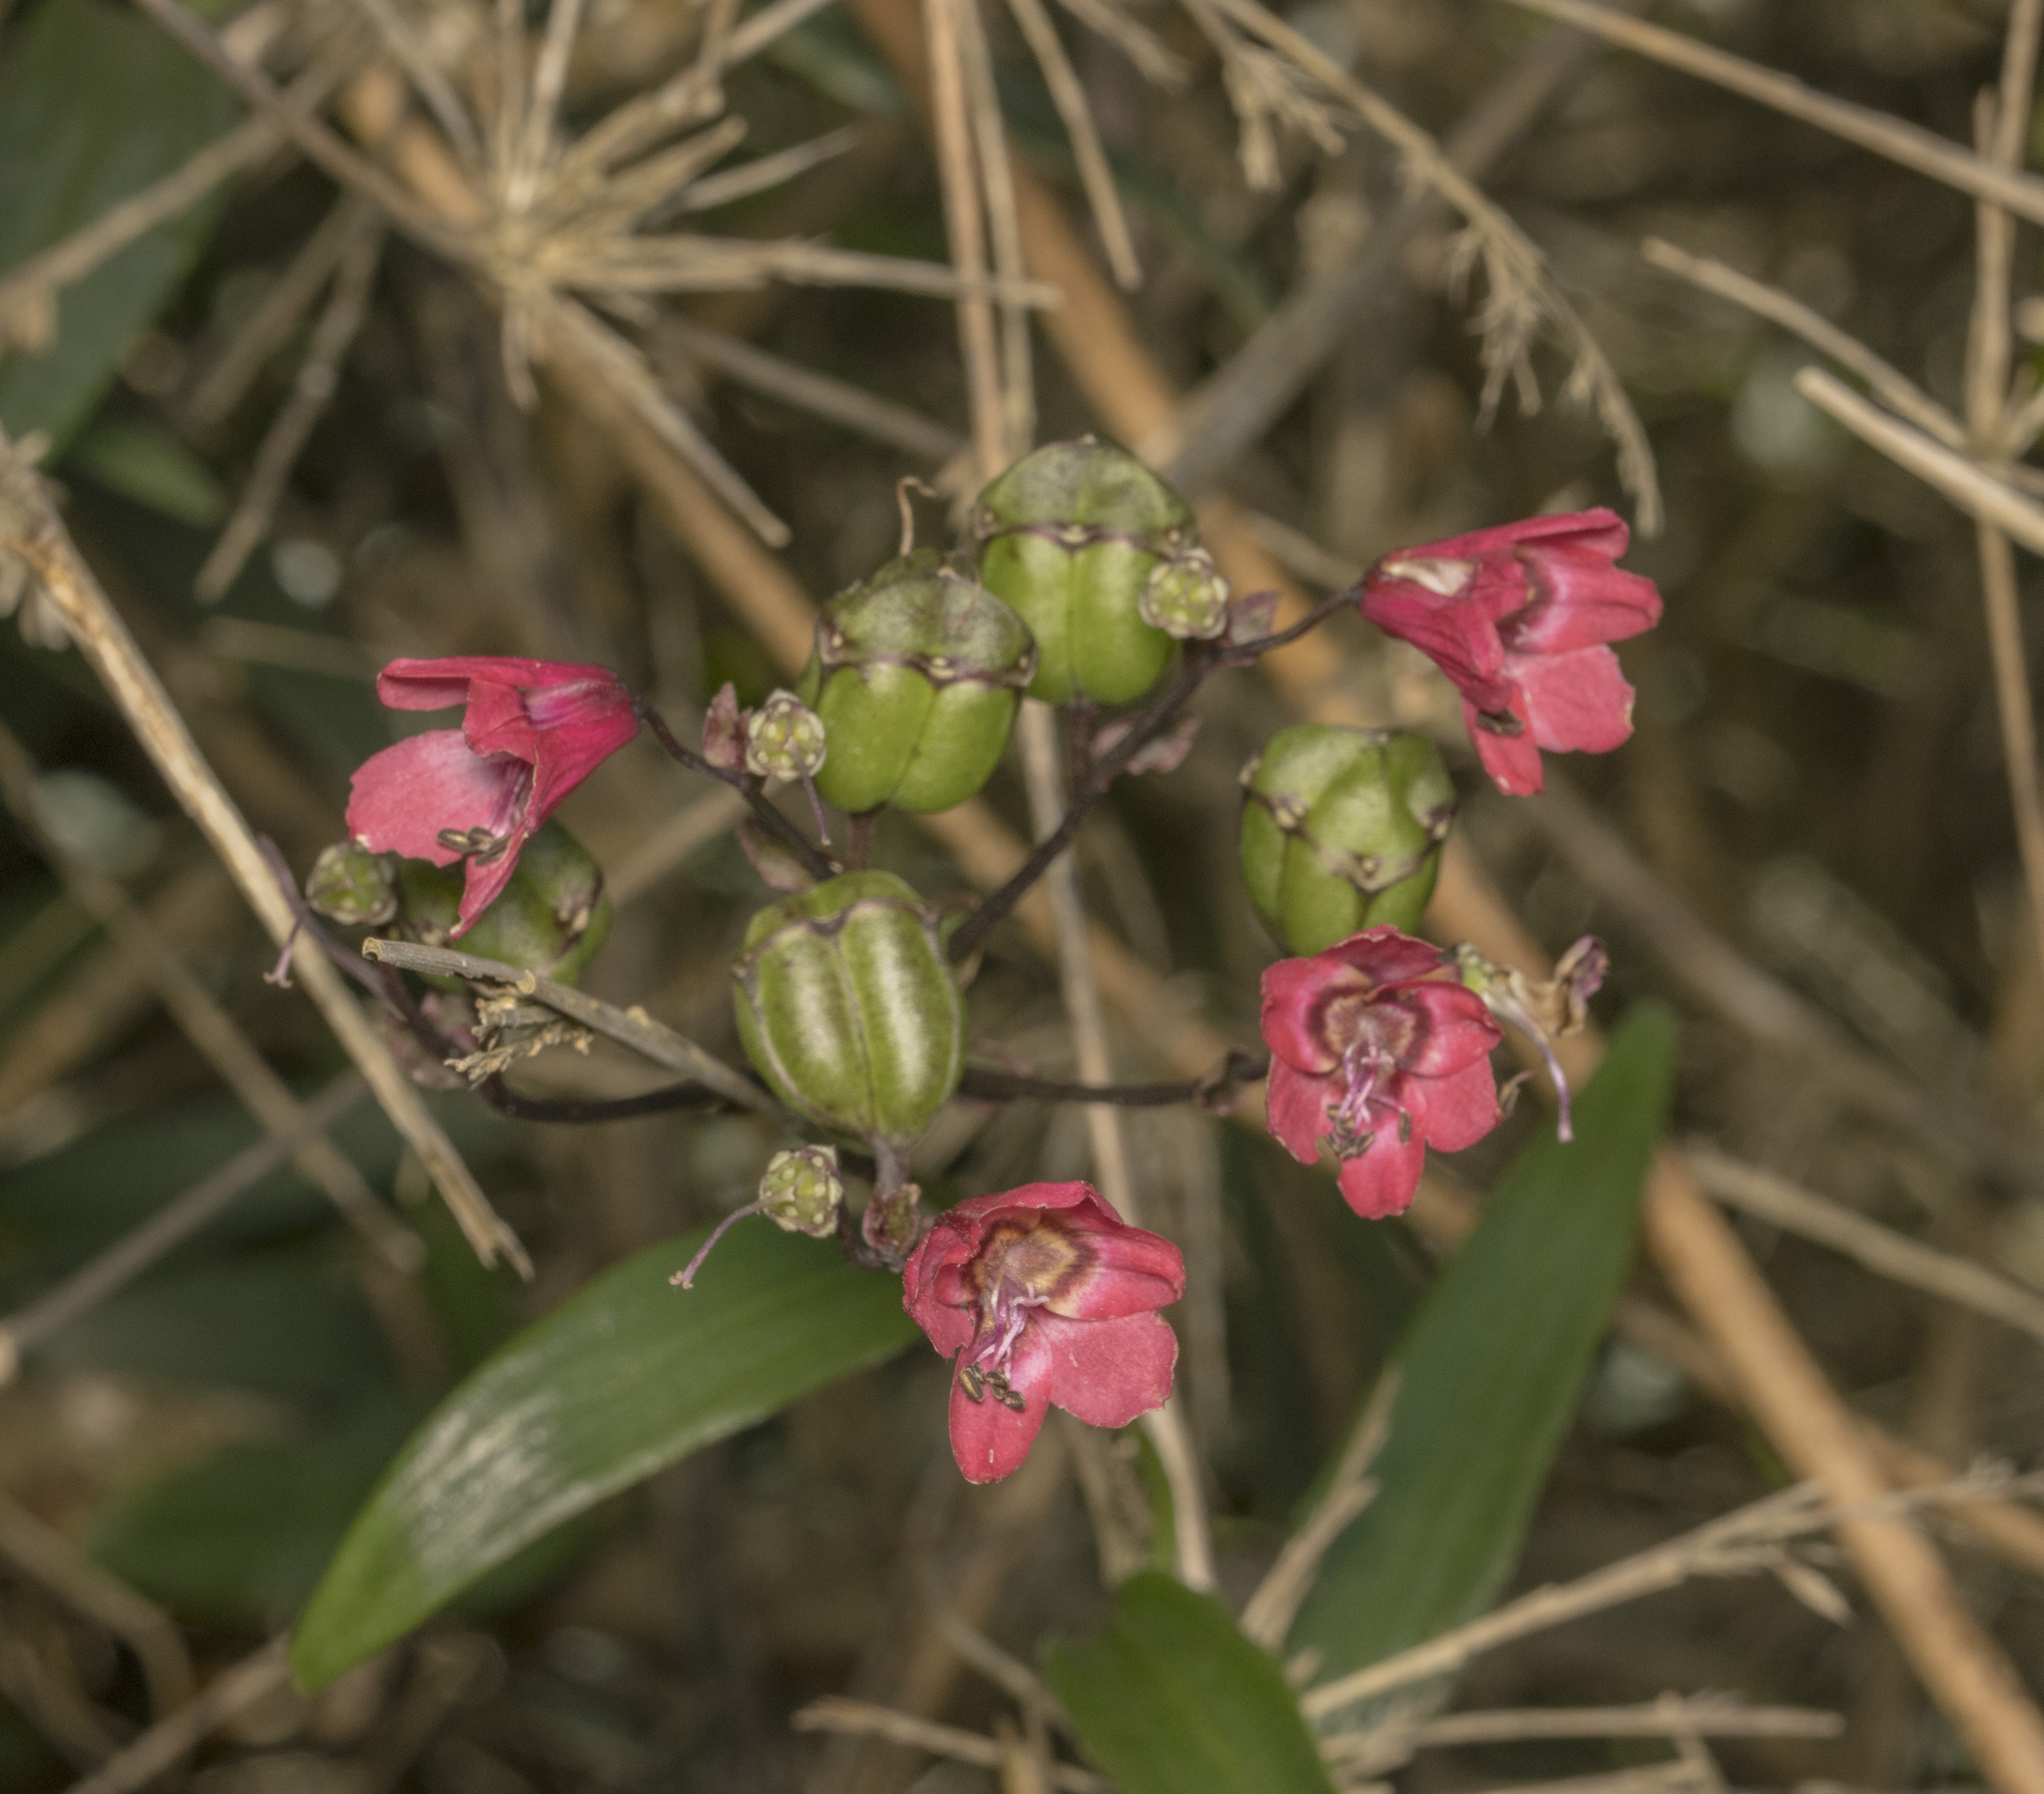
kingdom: Plantae
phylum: Tracheophyta
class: Liliopsida
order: Liliales
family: Alstroemeriaceae
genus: Bomarea
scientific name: Bomarea salsilla
